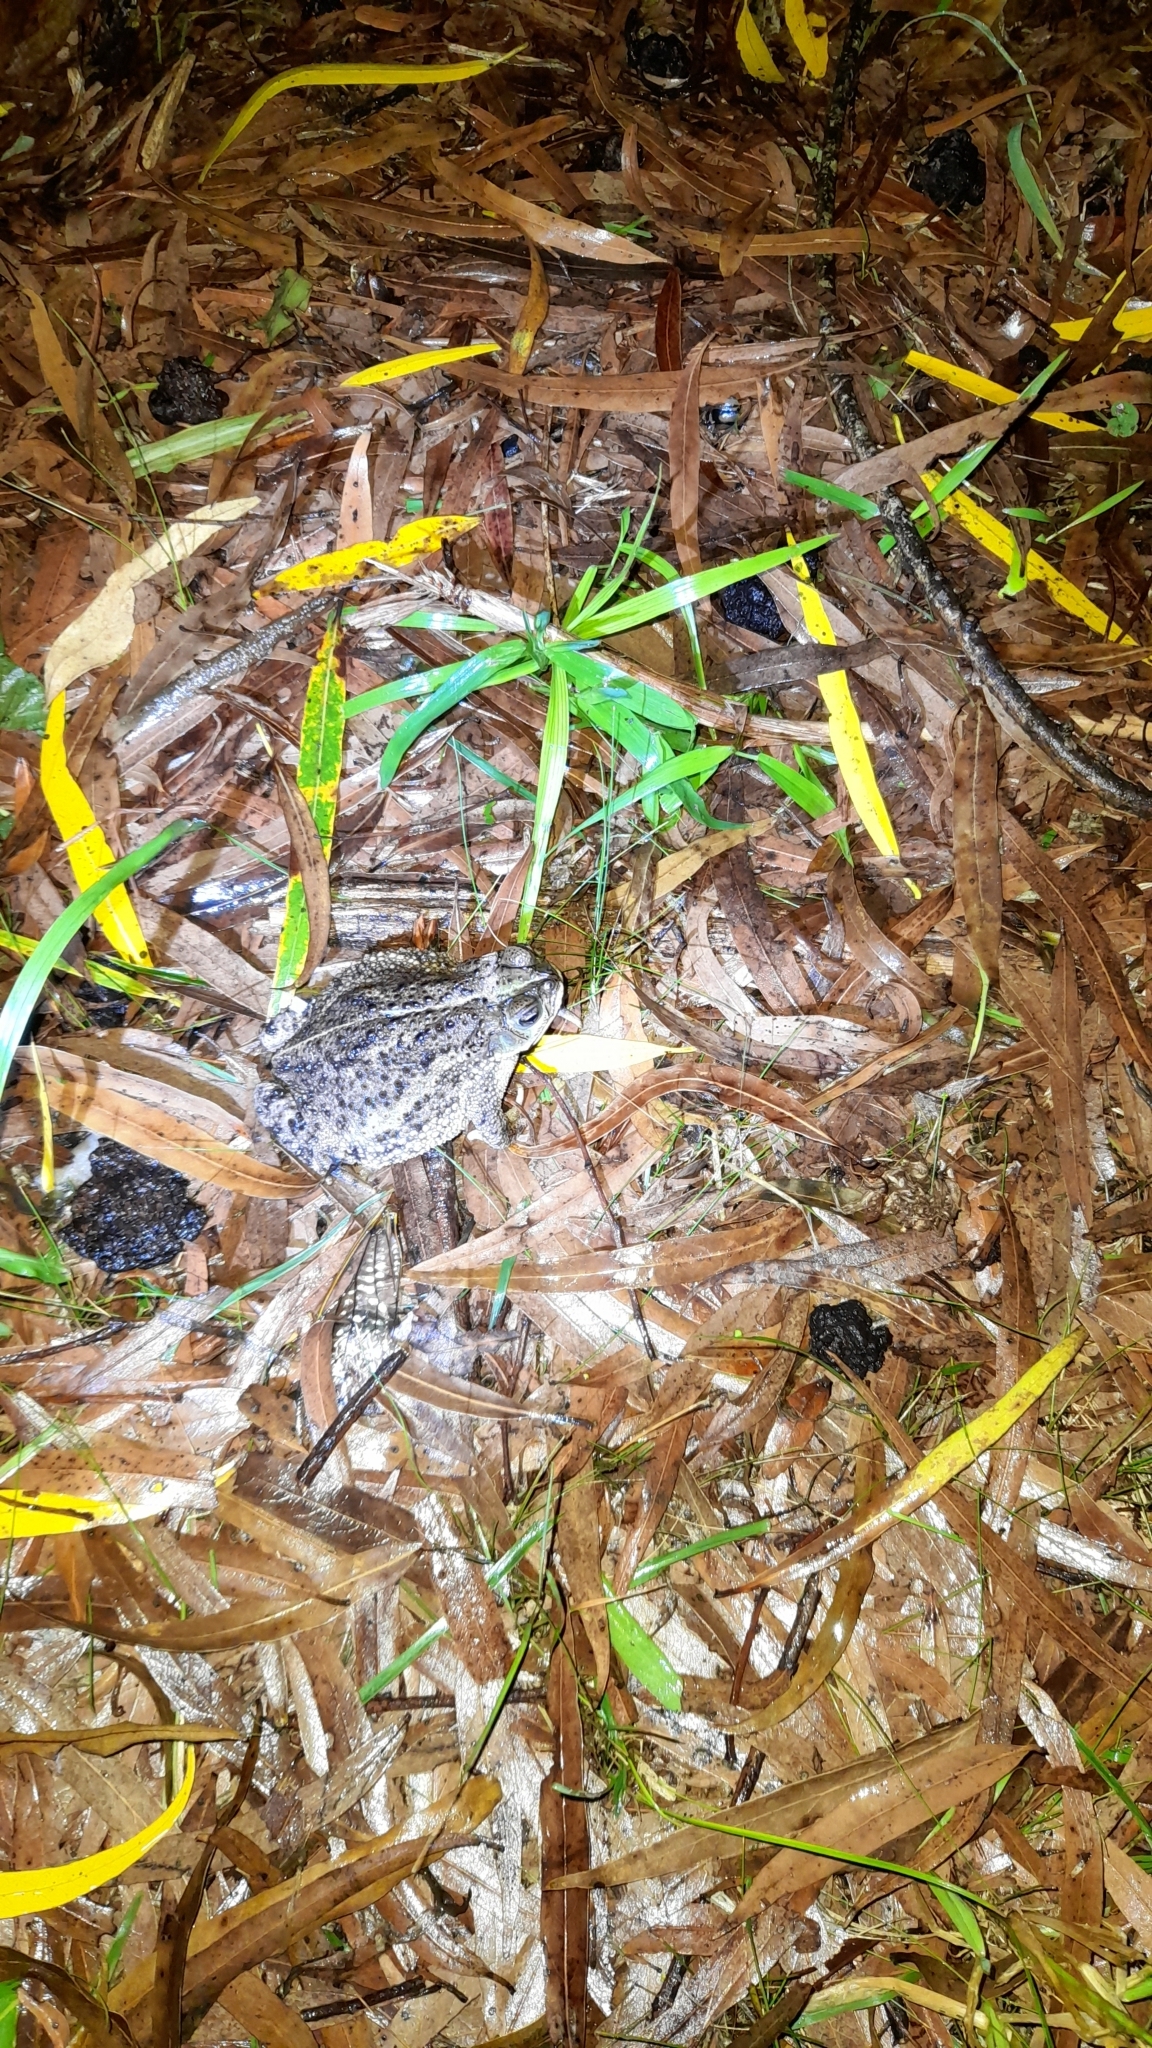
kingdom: Animalia
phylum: Chordata
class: Amphibia
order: Anura
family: Bufonidae
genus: Rhinella
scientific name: Rhinella dorbignyi
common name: D´orbigny’s toad
